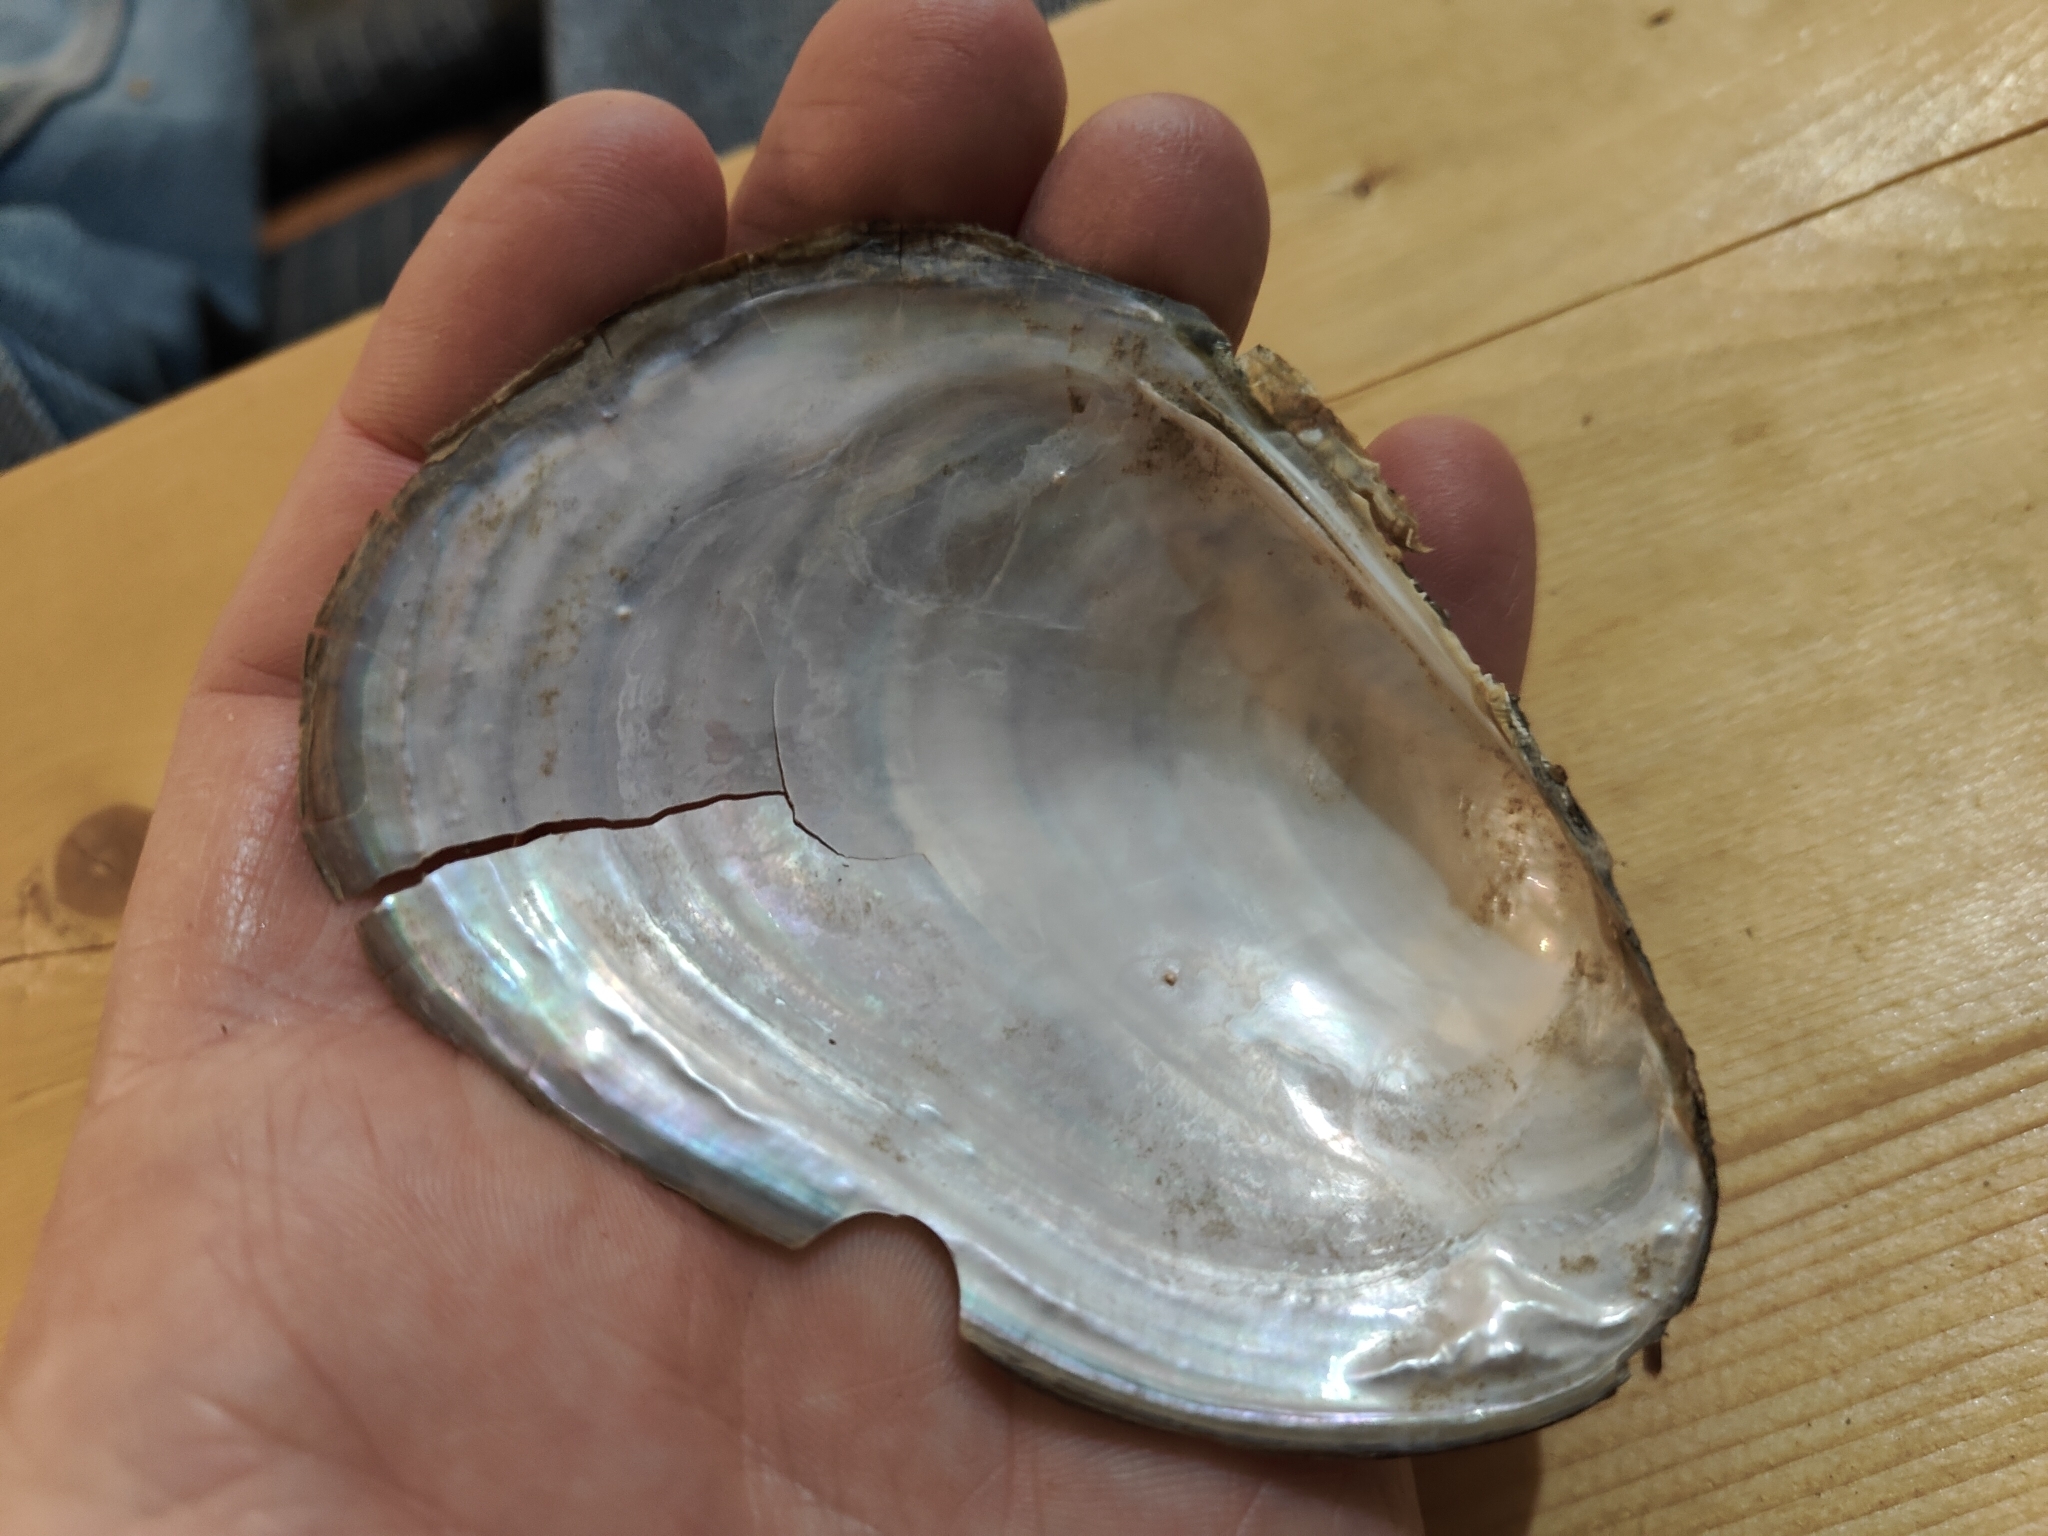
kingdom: Animalia
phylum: Mollusca
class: Bivalvia
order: Unionida
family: Unionidae
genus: Potamilus
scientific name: Potamilus fragilis
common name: Fragile papershell
